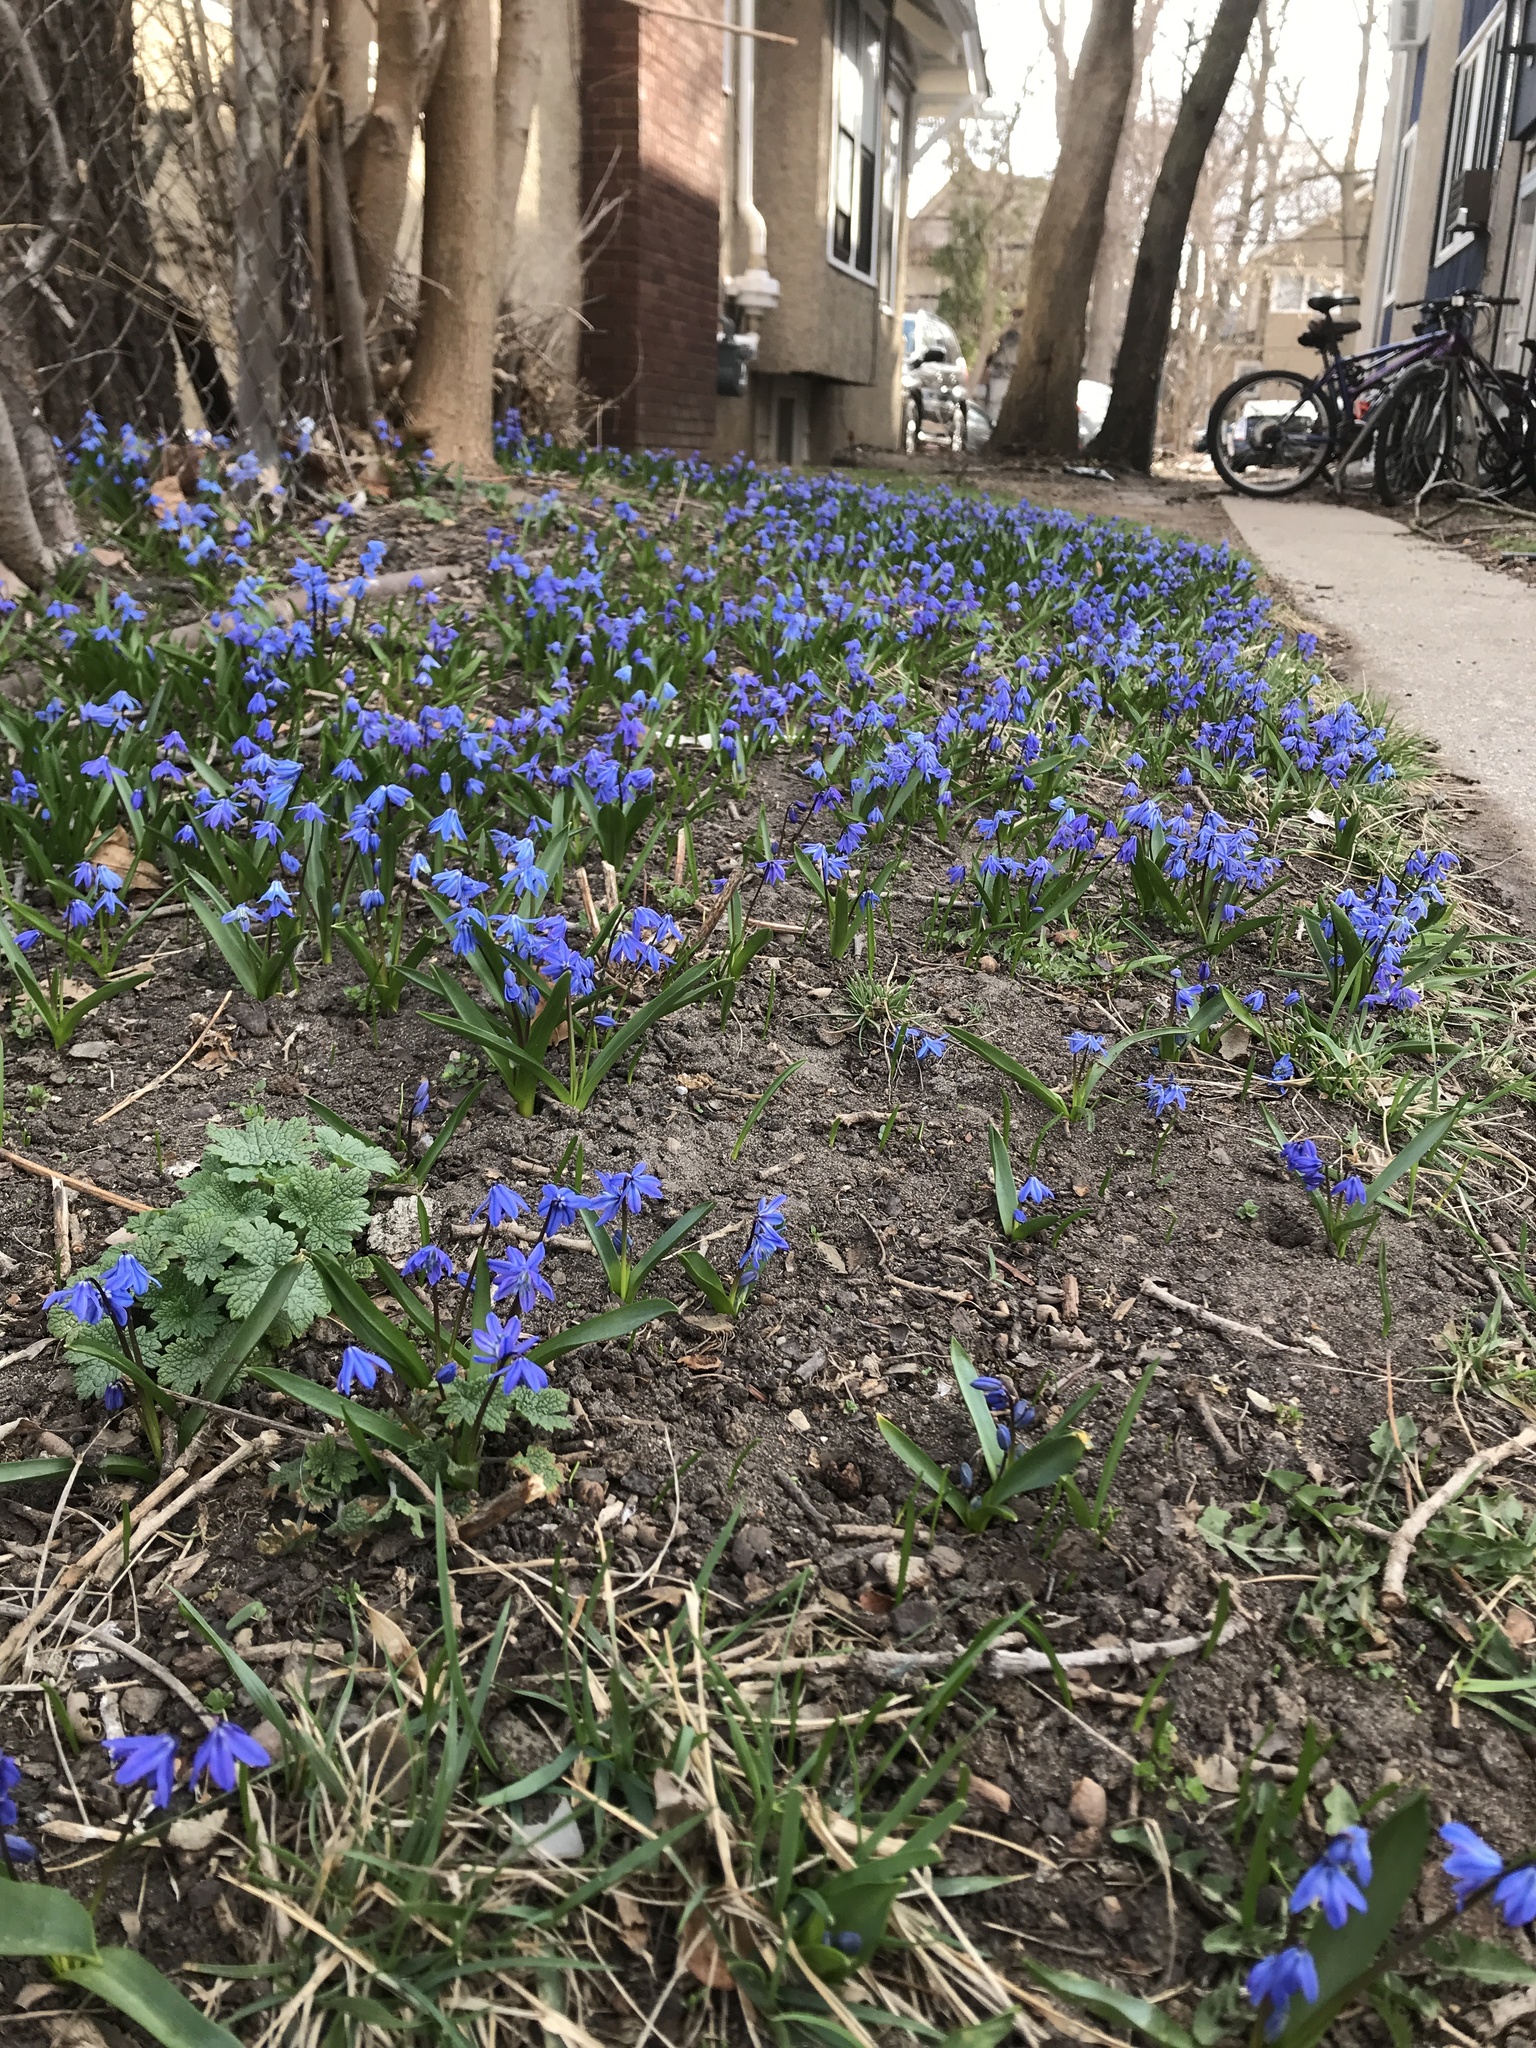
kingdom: Plantae
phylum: Tracheophyta
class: Liliopsida
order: Asparagales
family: Asparagaceae
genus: Scilla
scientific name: Scilla siberica
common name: Siberian squill
